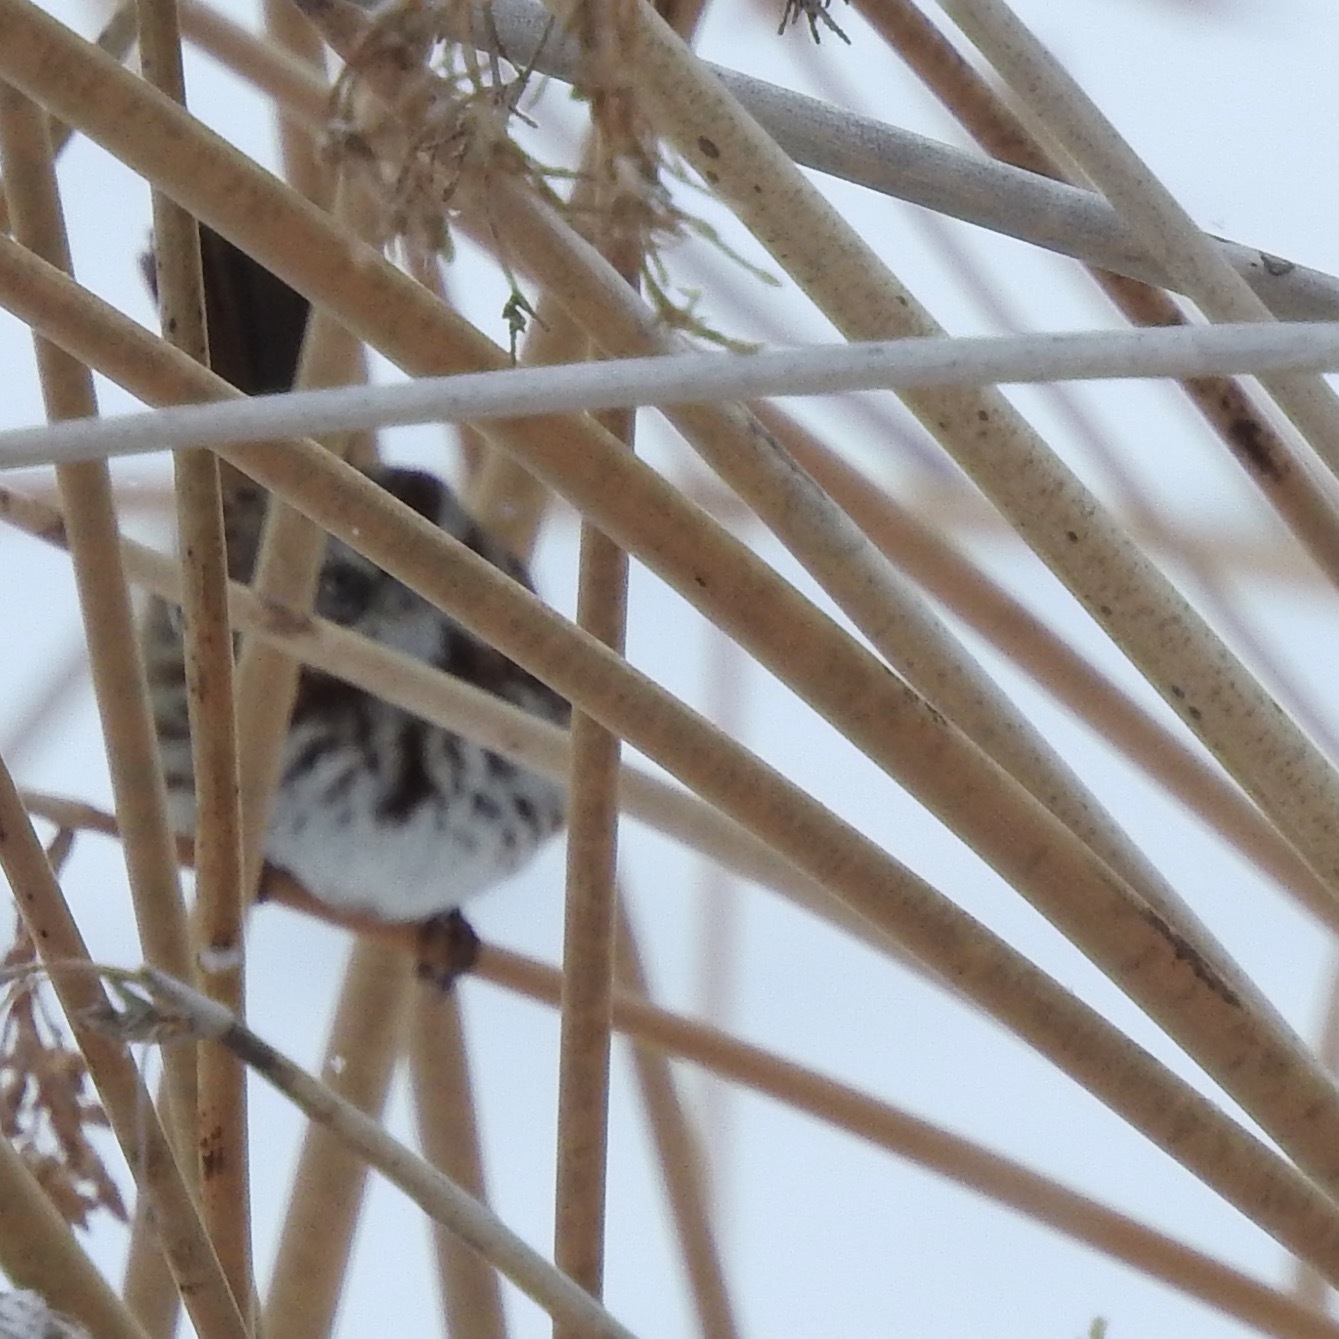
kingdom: Animalia
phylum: Chordata
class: Aves
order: Passeriformes
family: Passerellidae
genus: Melospiza
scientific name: Melospiza melodia
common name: Song sparrow
